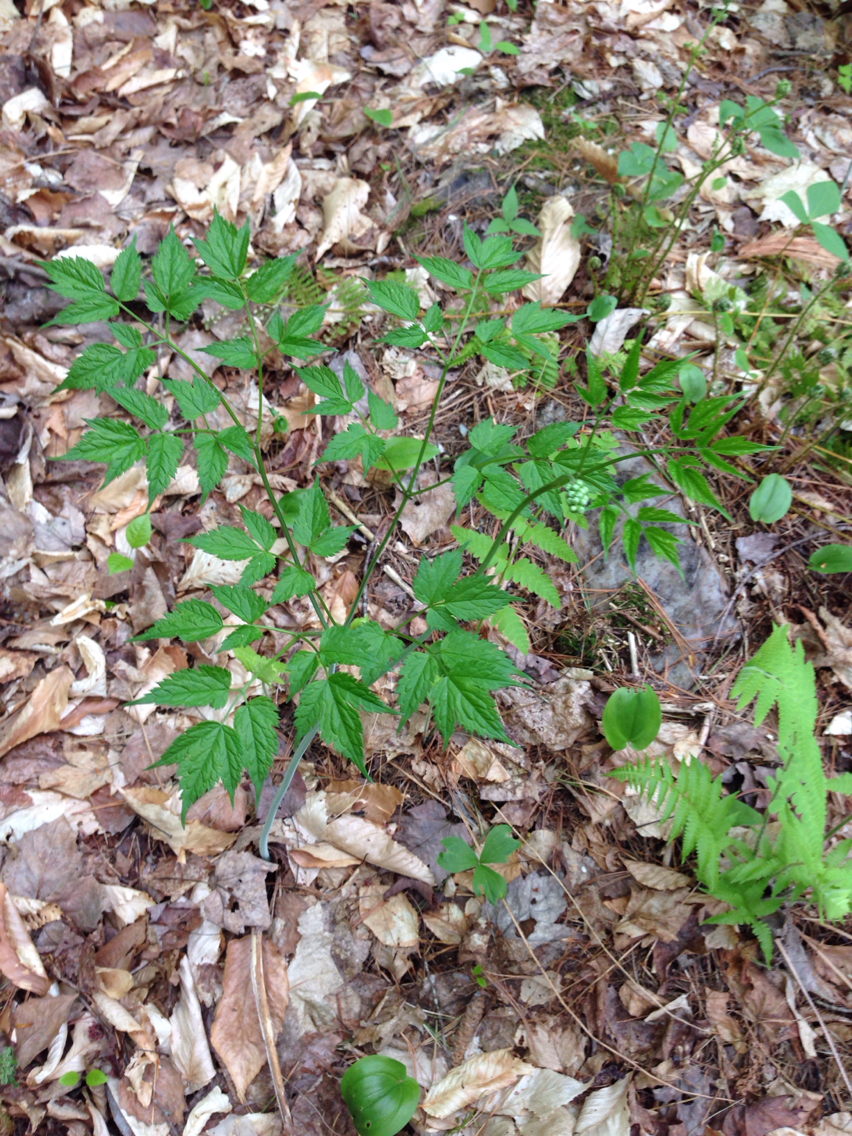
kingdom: Plantae
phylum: Tracheophyta
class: Magnoliopsida
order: Ranunculales
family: Ranunculaceae
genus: Actaea
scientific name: Actaea racemosa
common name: Black cohosh
